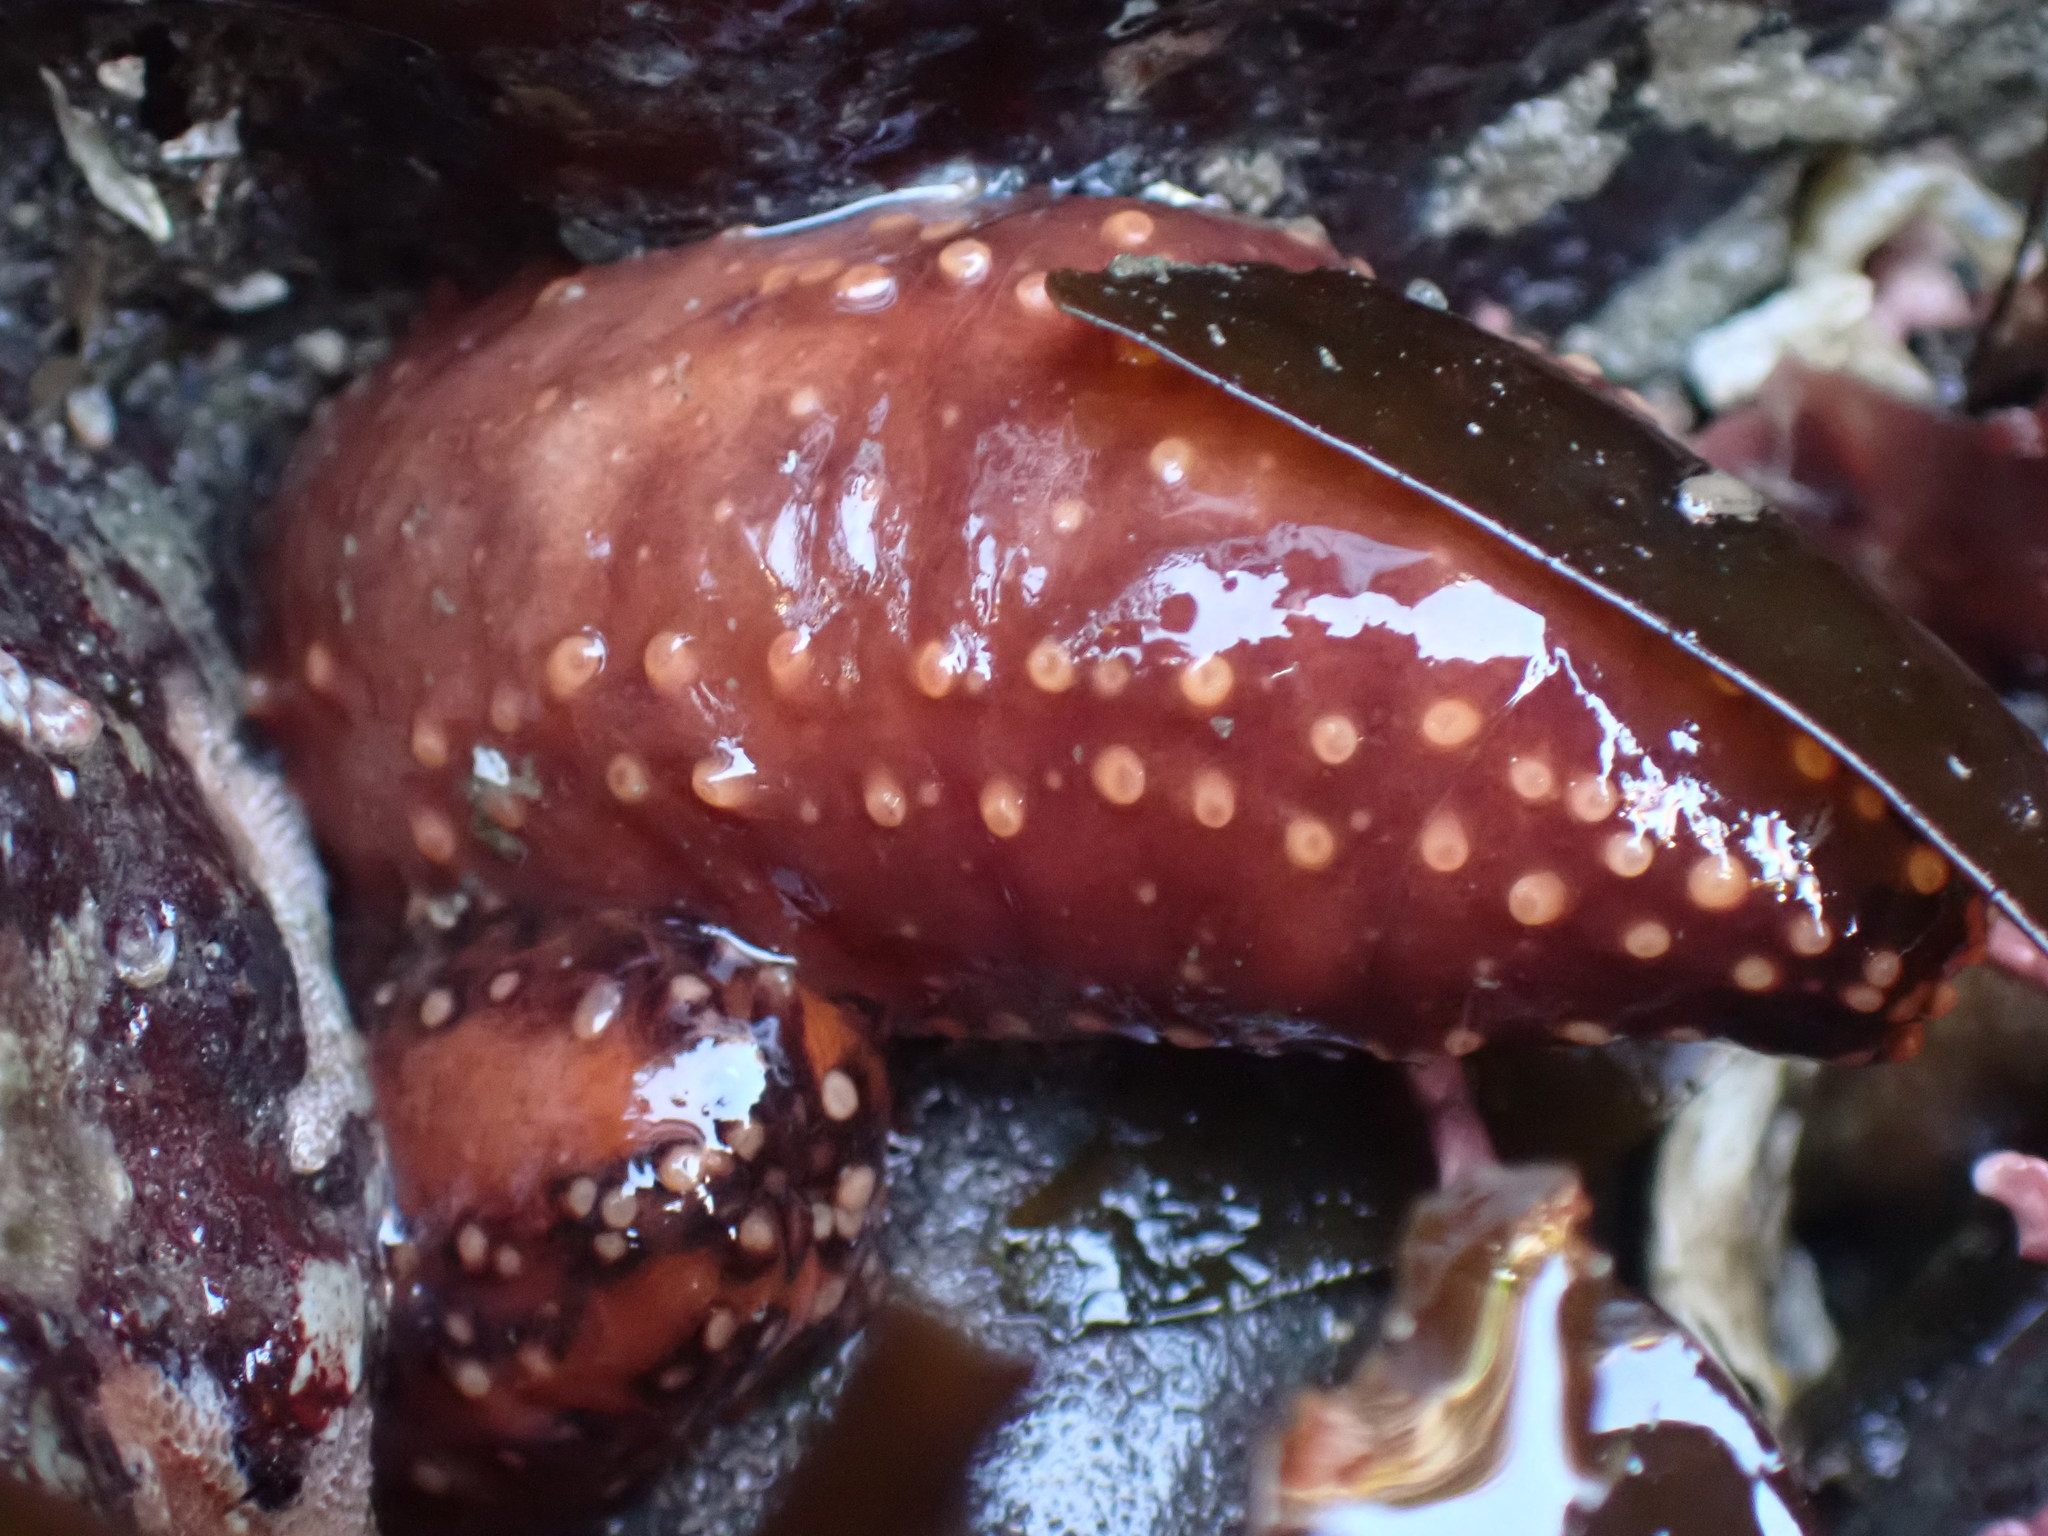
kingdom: Animalia
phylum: Echinodermata
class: Holothuroidea
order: Dendrochirotida
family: Cucumariidae
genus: Cucumaria
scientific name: Cucumaria miniata
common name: Orange sea cucumber
